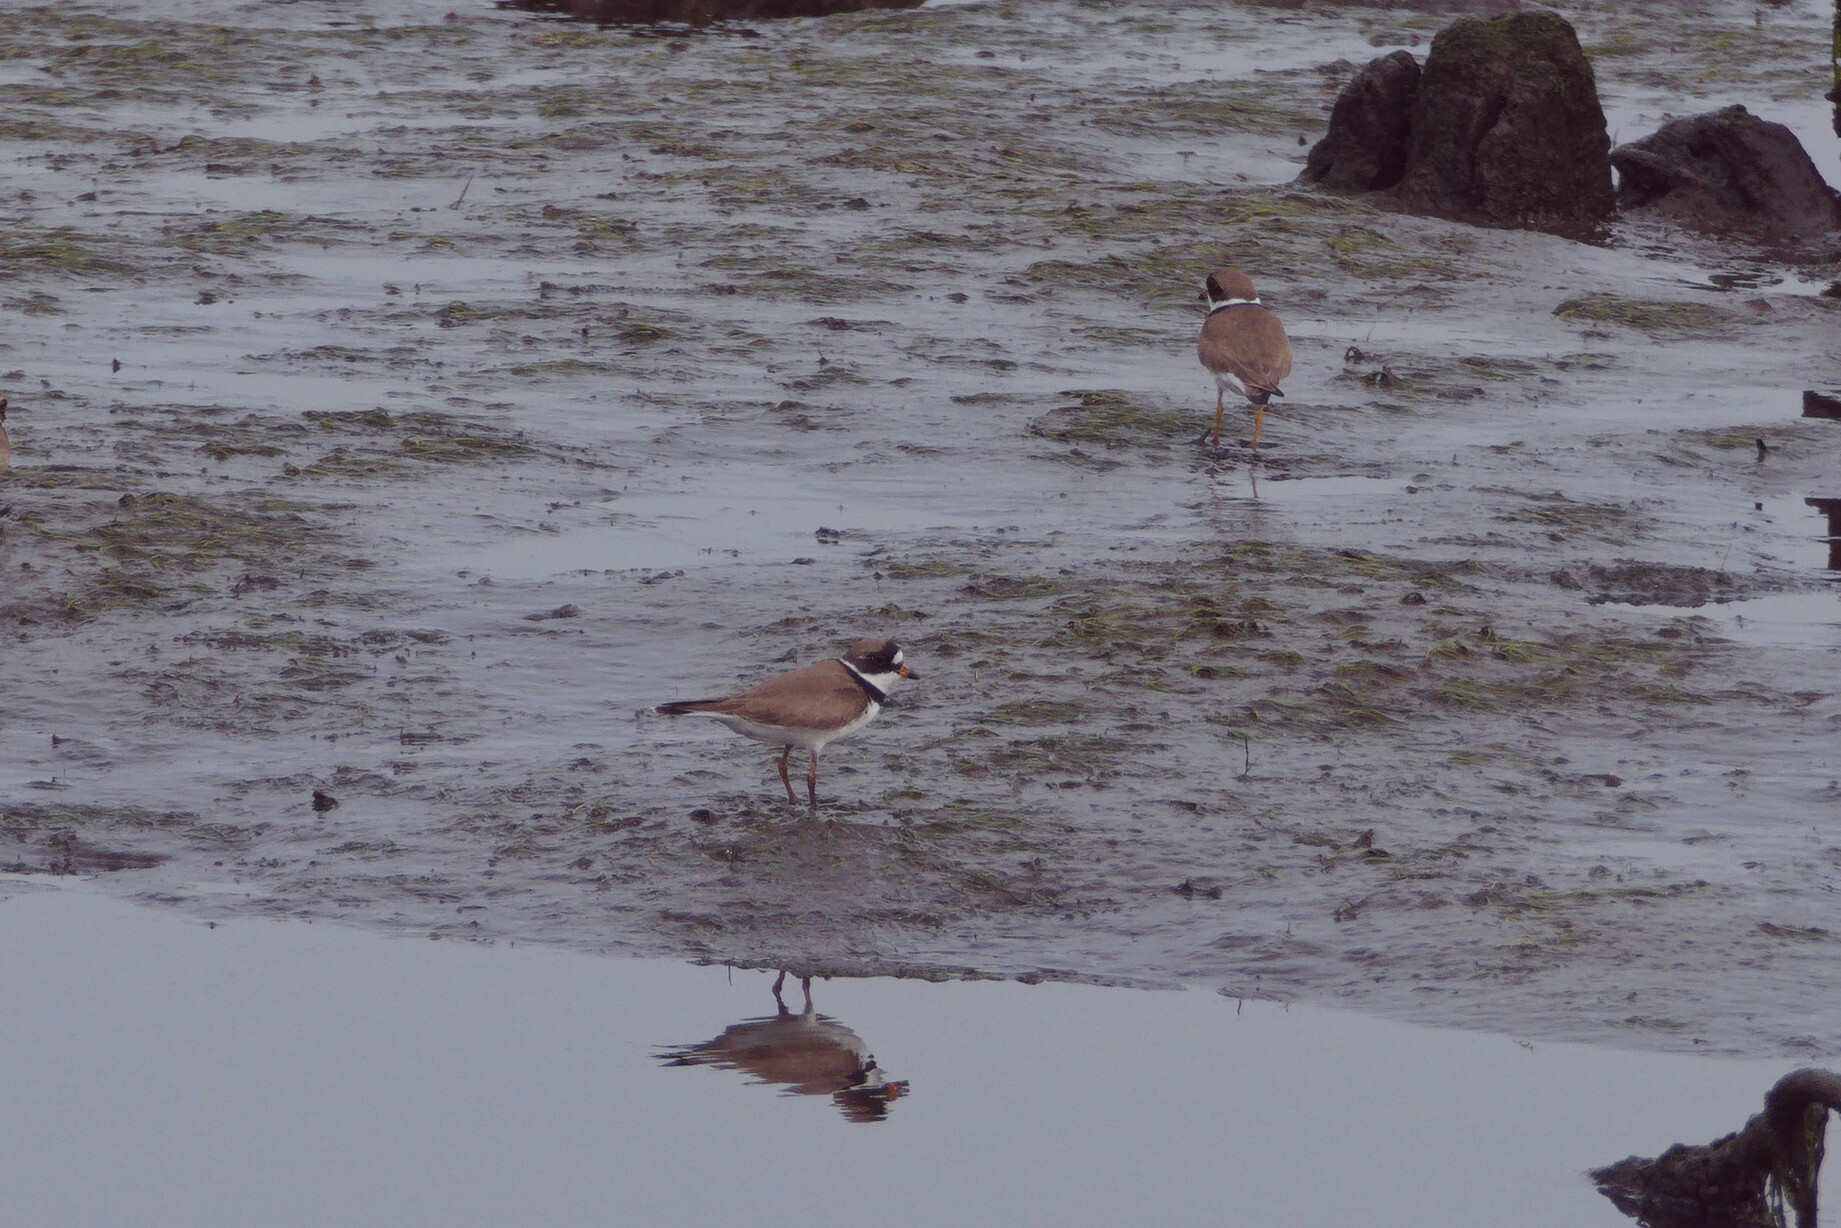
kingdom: Animalia
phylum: Chordata
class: Aves
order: Charadriiformes
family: Charadriidae
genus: Charadrius
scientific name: Charadrius semipalmatus
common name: Semipalmated plover
